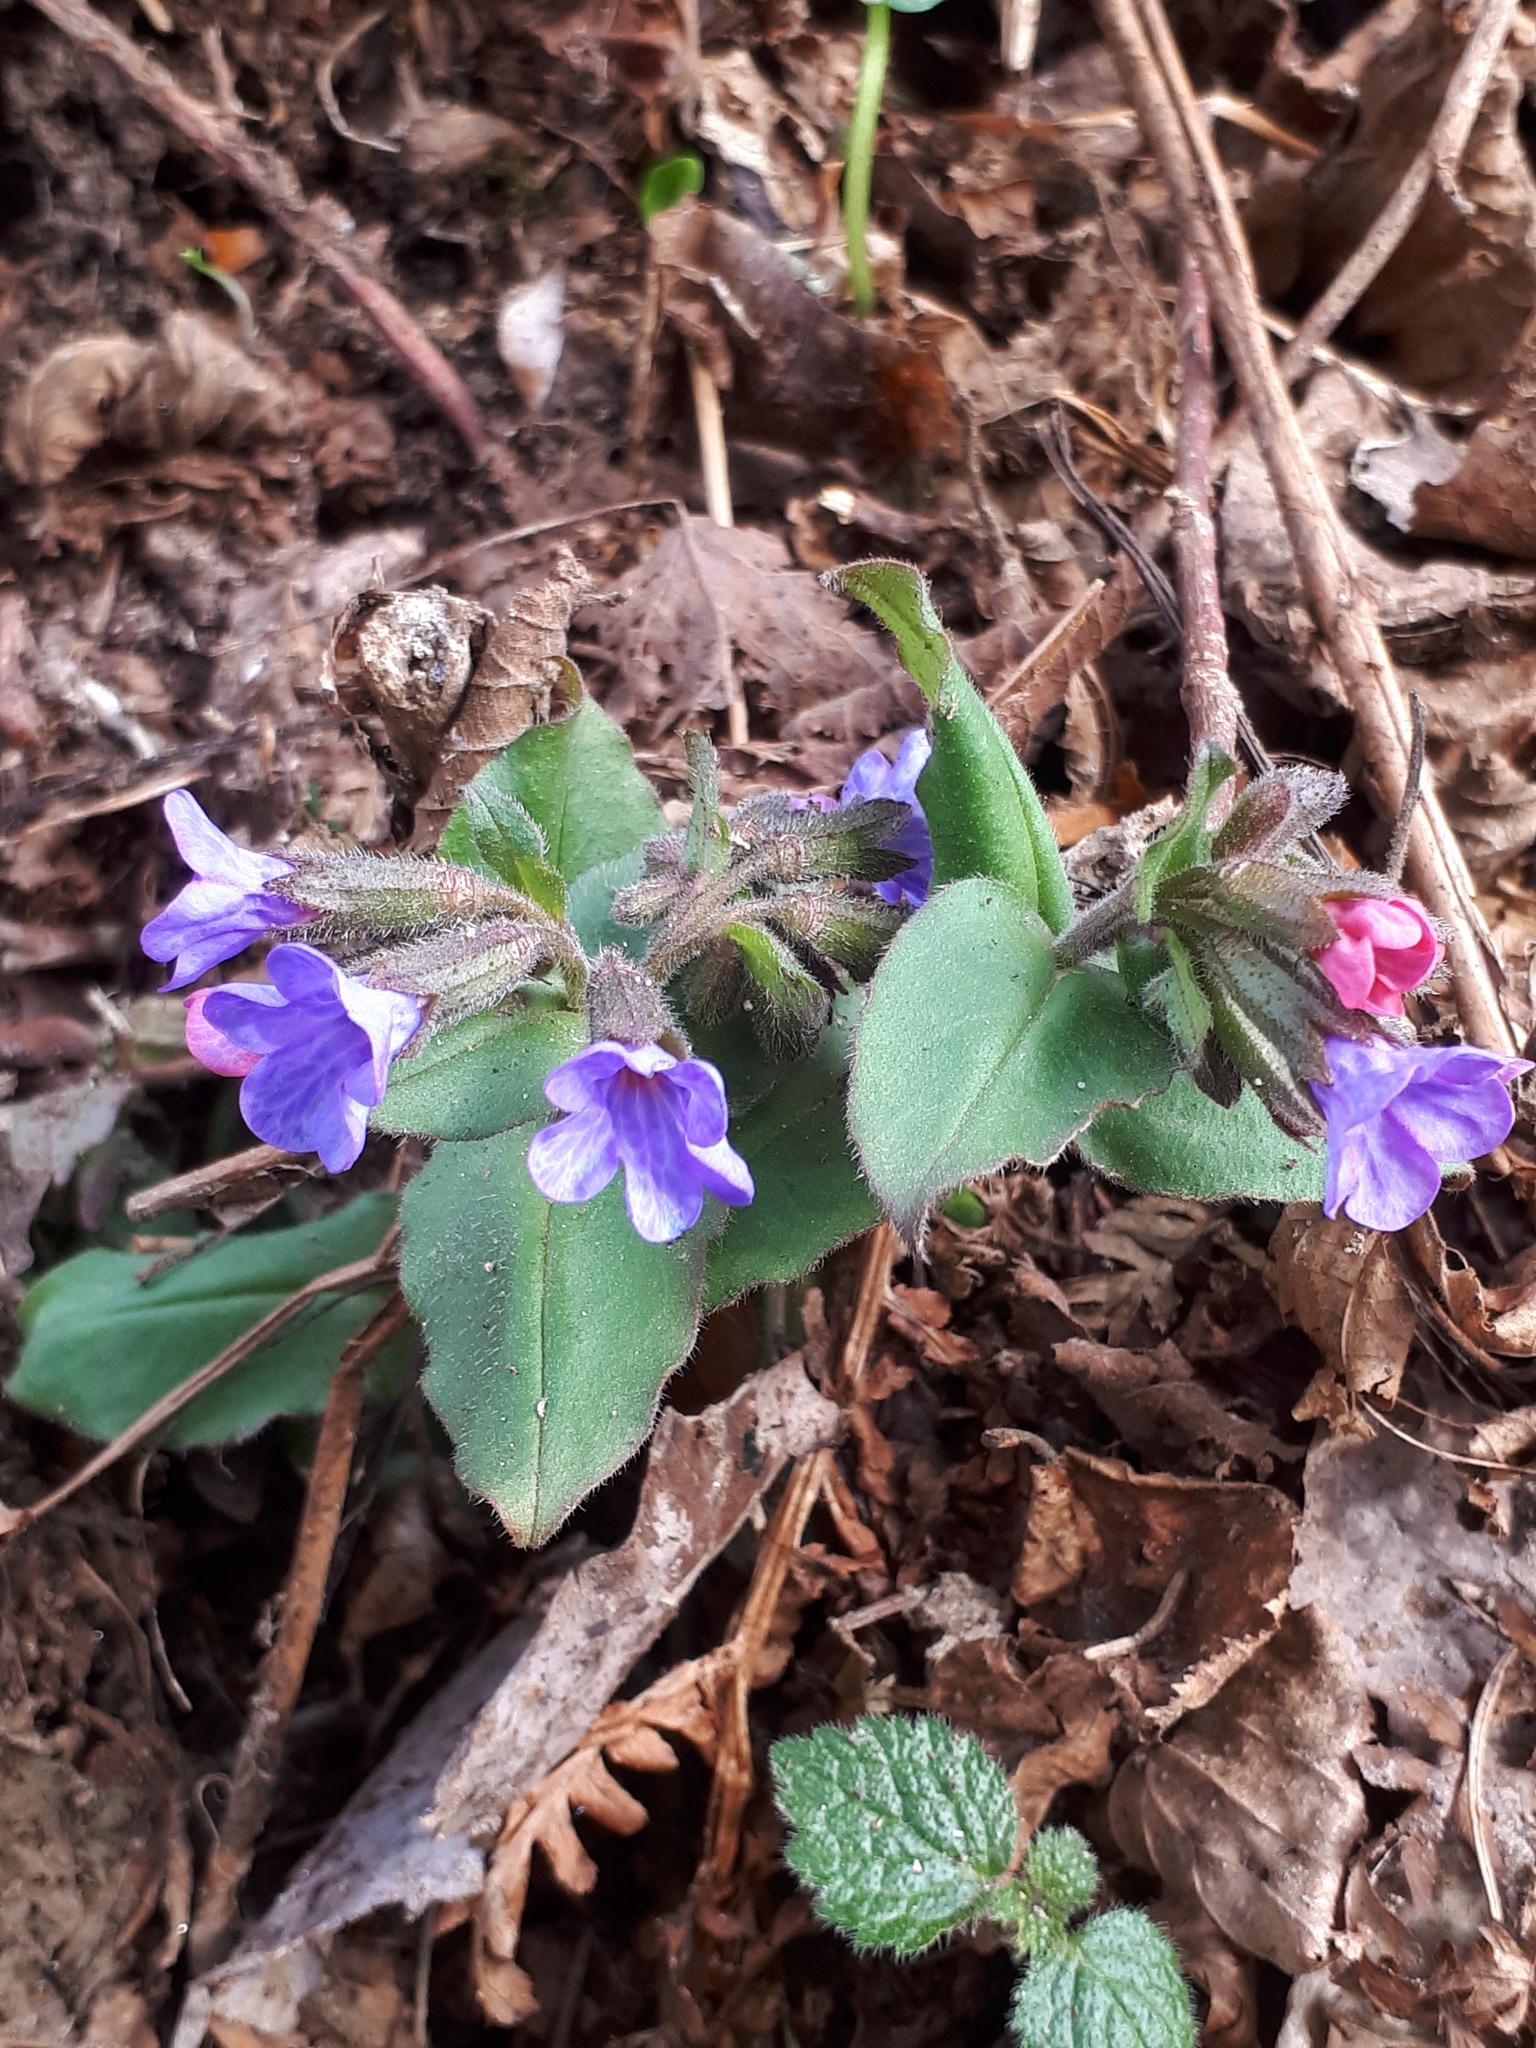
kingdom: Plantae
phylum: Tracheophyta
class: Magnoliopsida
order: Boraginales
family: Boraginaceae
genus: Pulmonaria
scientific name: Pulmonaria officinalis
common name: Lungwort
